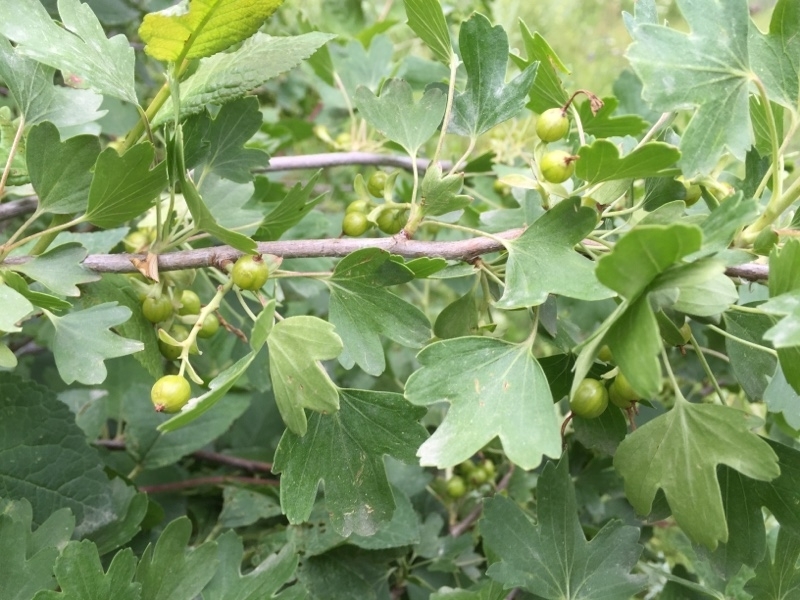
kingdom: Plantae
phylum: Tracheophyta
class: Magnoliopsida
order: Saxifragales
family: Grossulariaceae
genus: Ribes
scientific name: Ribes aureum
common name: Golden currant
